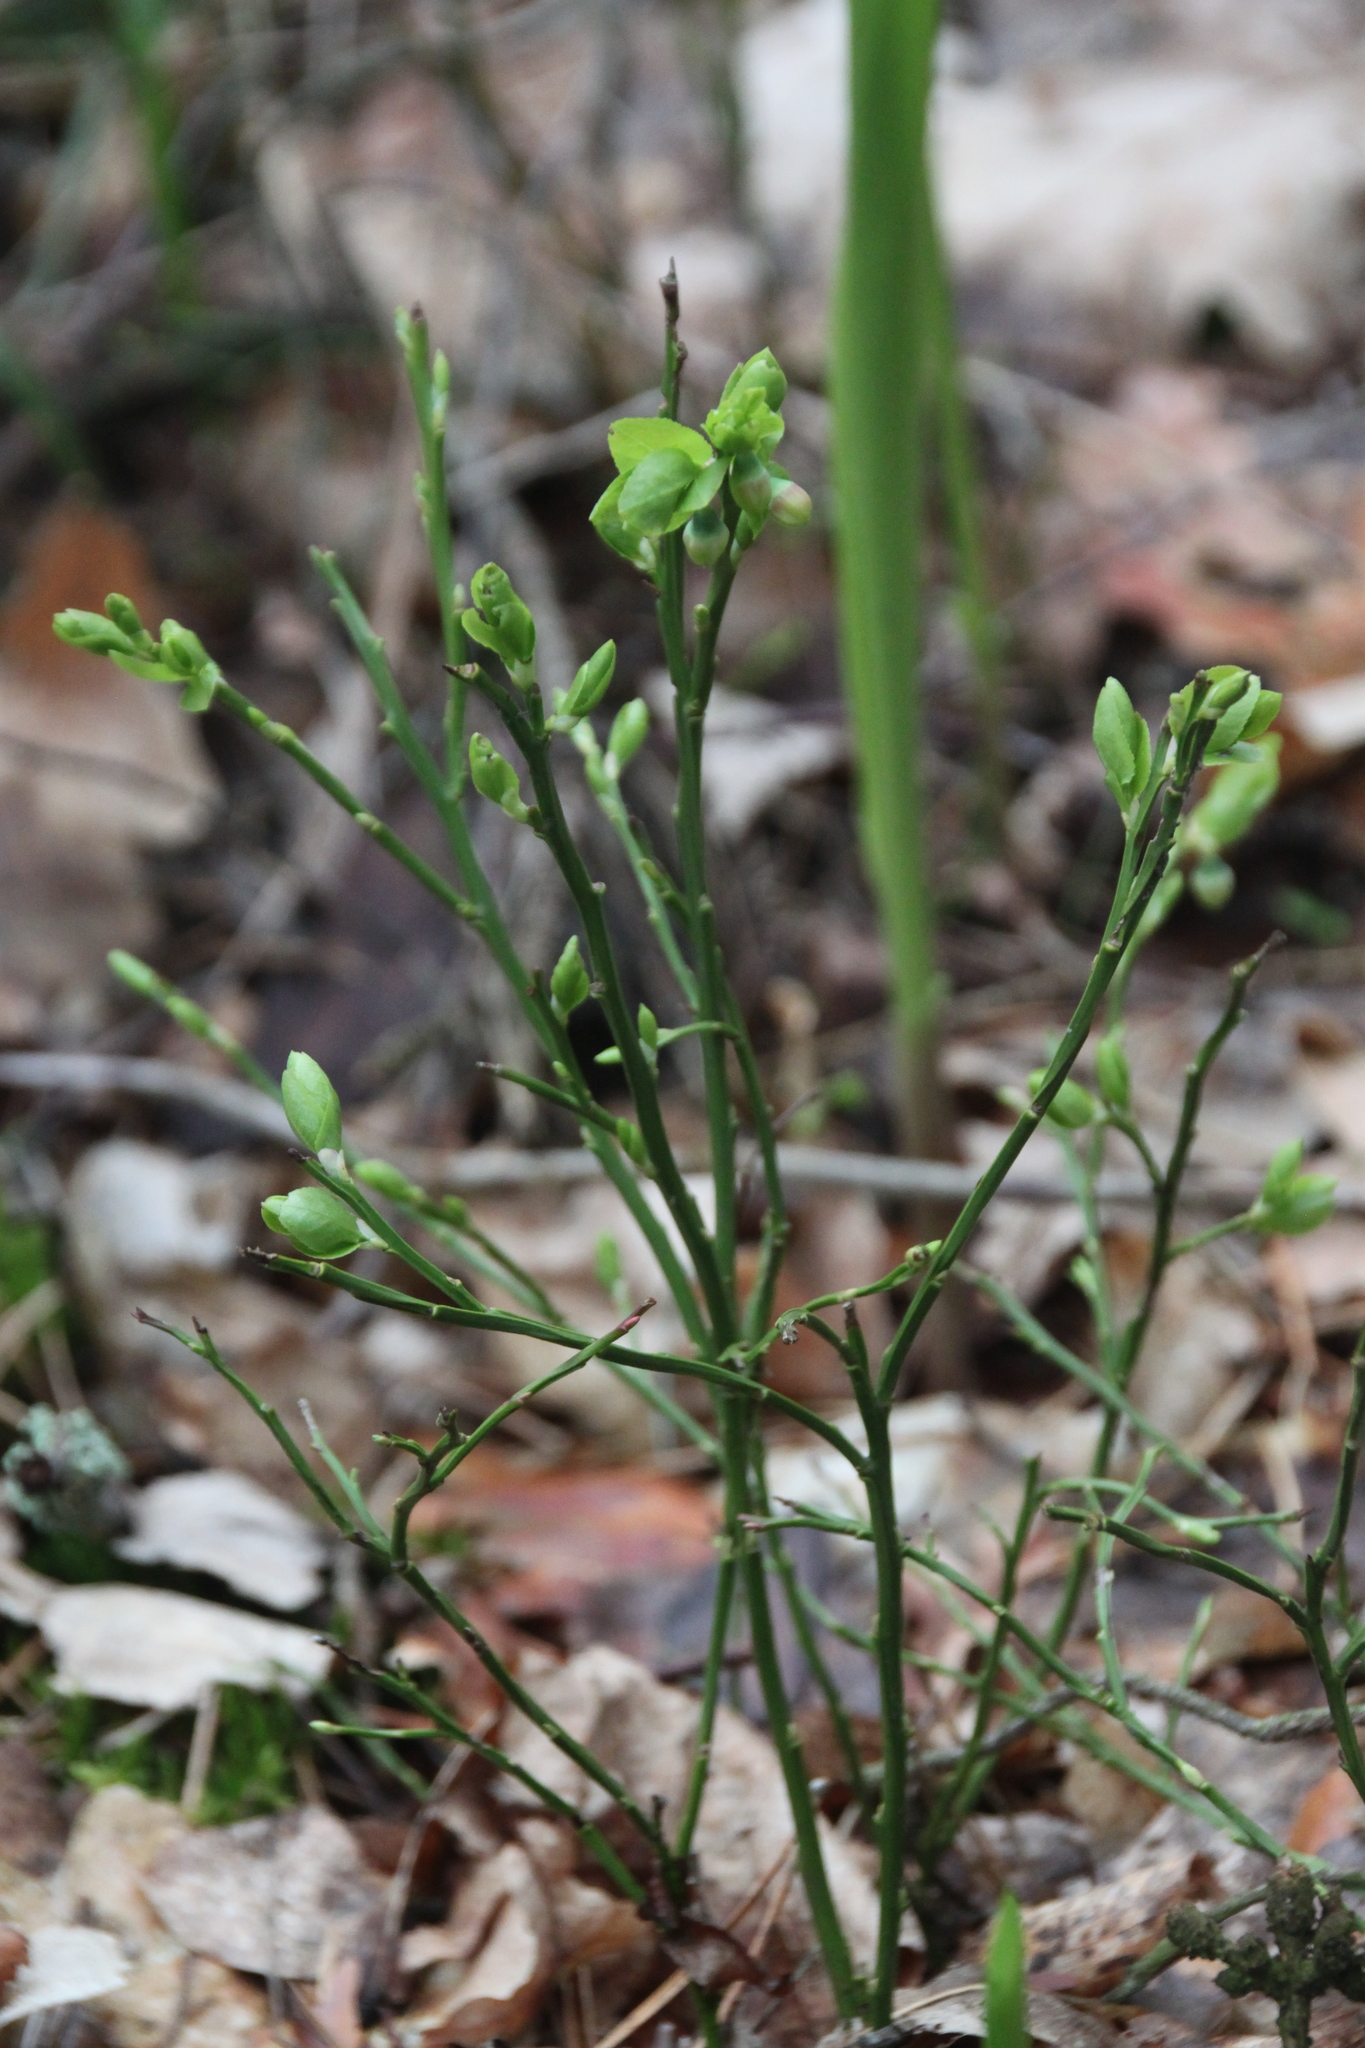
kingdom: Plantae
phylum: Tracheophyta
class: Magnoliopsida
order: Ericales
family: Ericaceae
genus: Vaccinium
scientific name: Vaccinium myrtillus
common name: Bilberry
